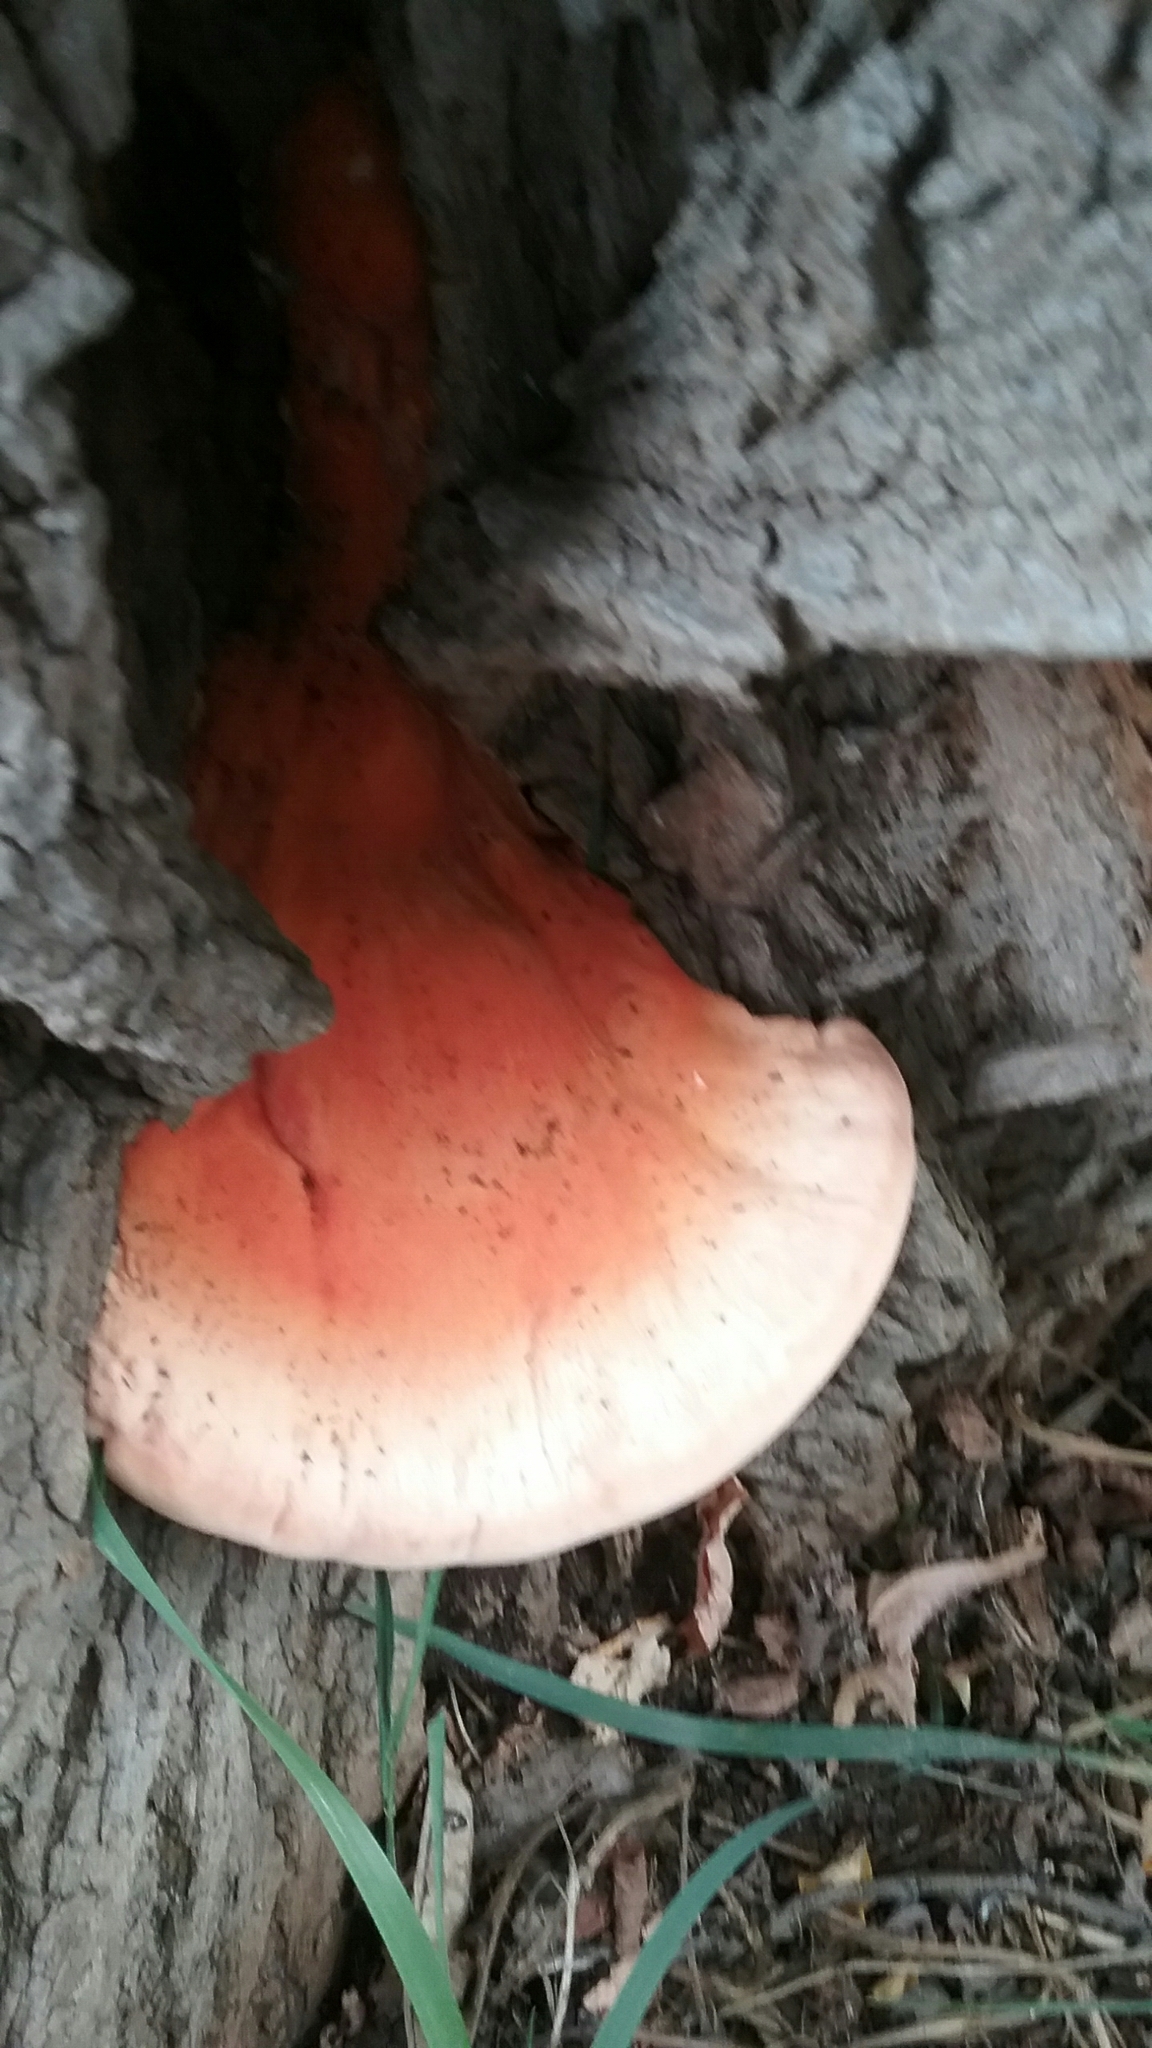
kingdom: Fungi
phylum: Basidiomycota
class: Agaricomycetes
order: Polyporales
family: Laetiporaceae
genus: Laetiporus
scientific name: Laetiporus sulphureus
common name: Chicken of the woods
